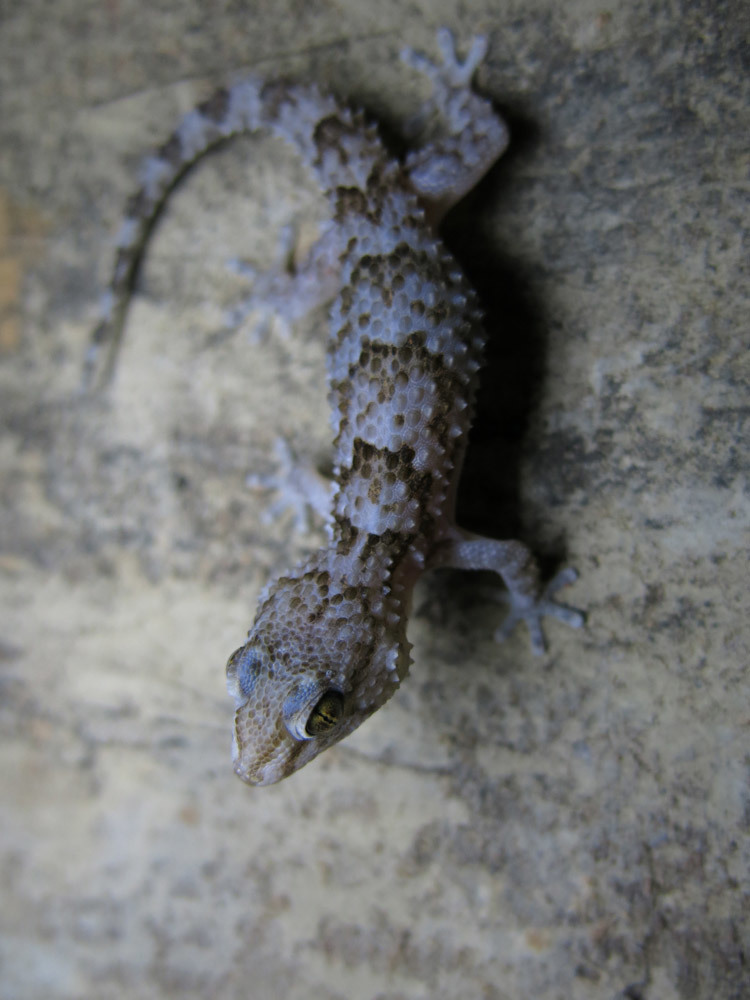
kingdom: Animalia
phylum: Chordata
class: Squamata
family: Gekkonidae
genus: Chondrodactylus
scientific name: Chondrodactylus turneri
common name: Turner’s gecko
